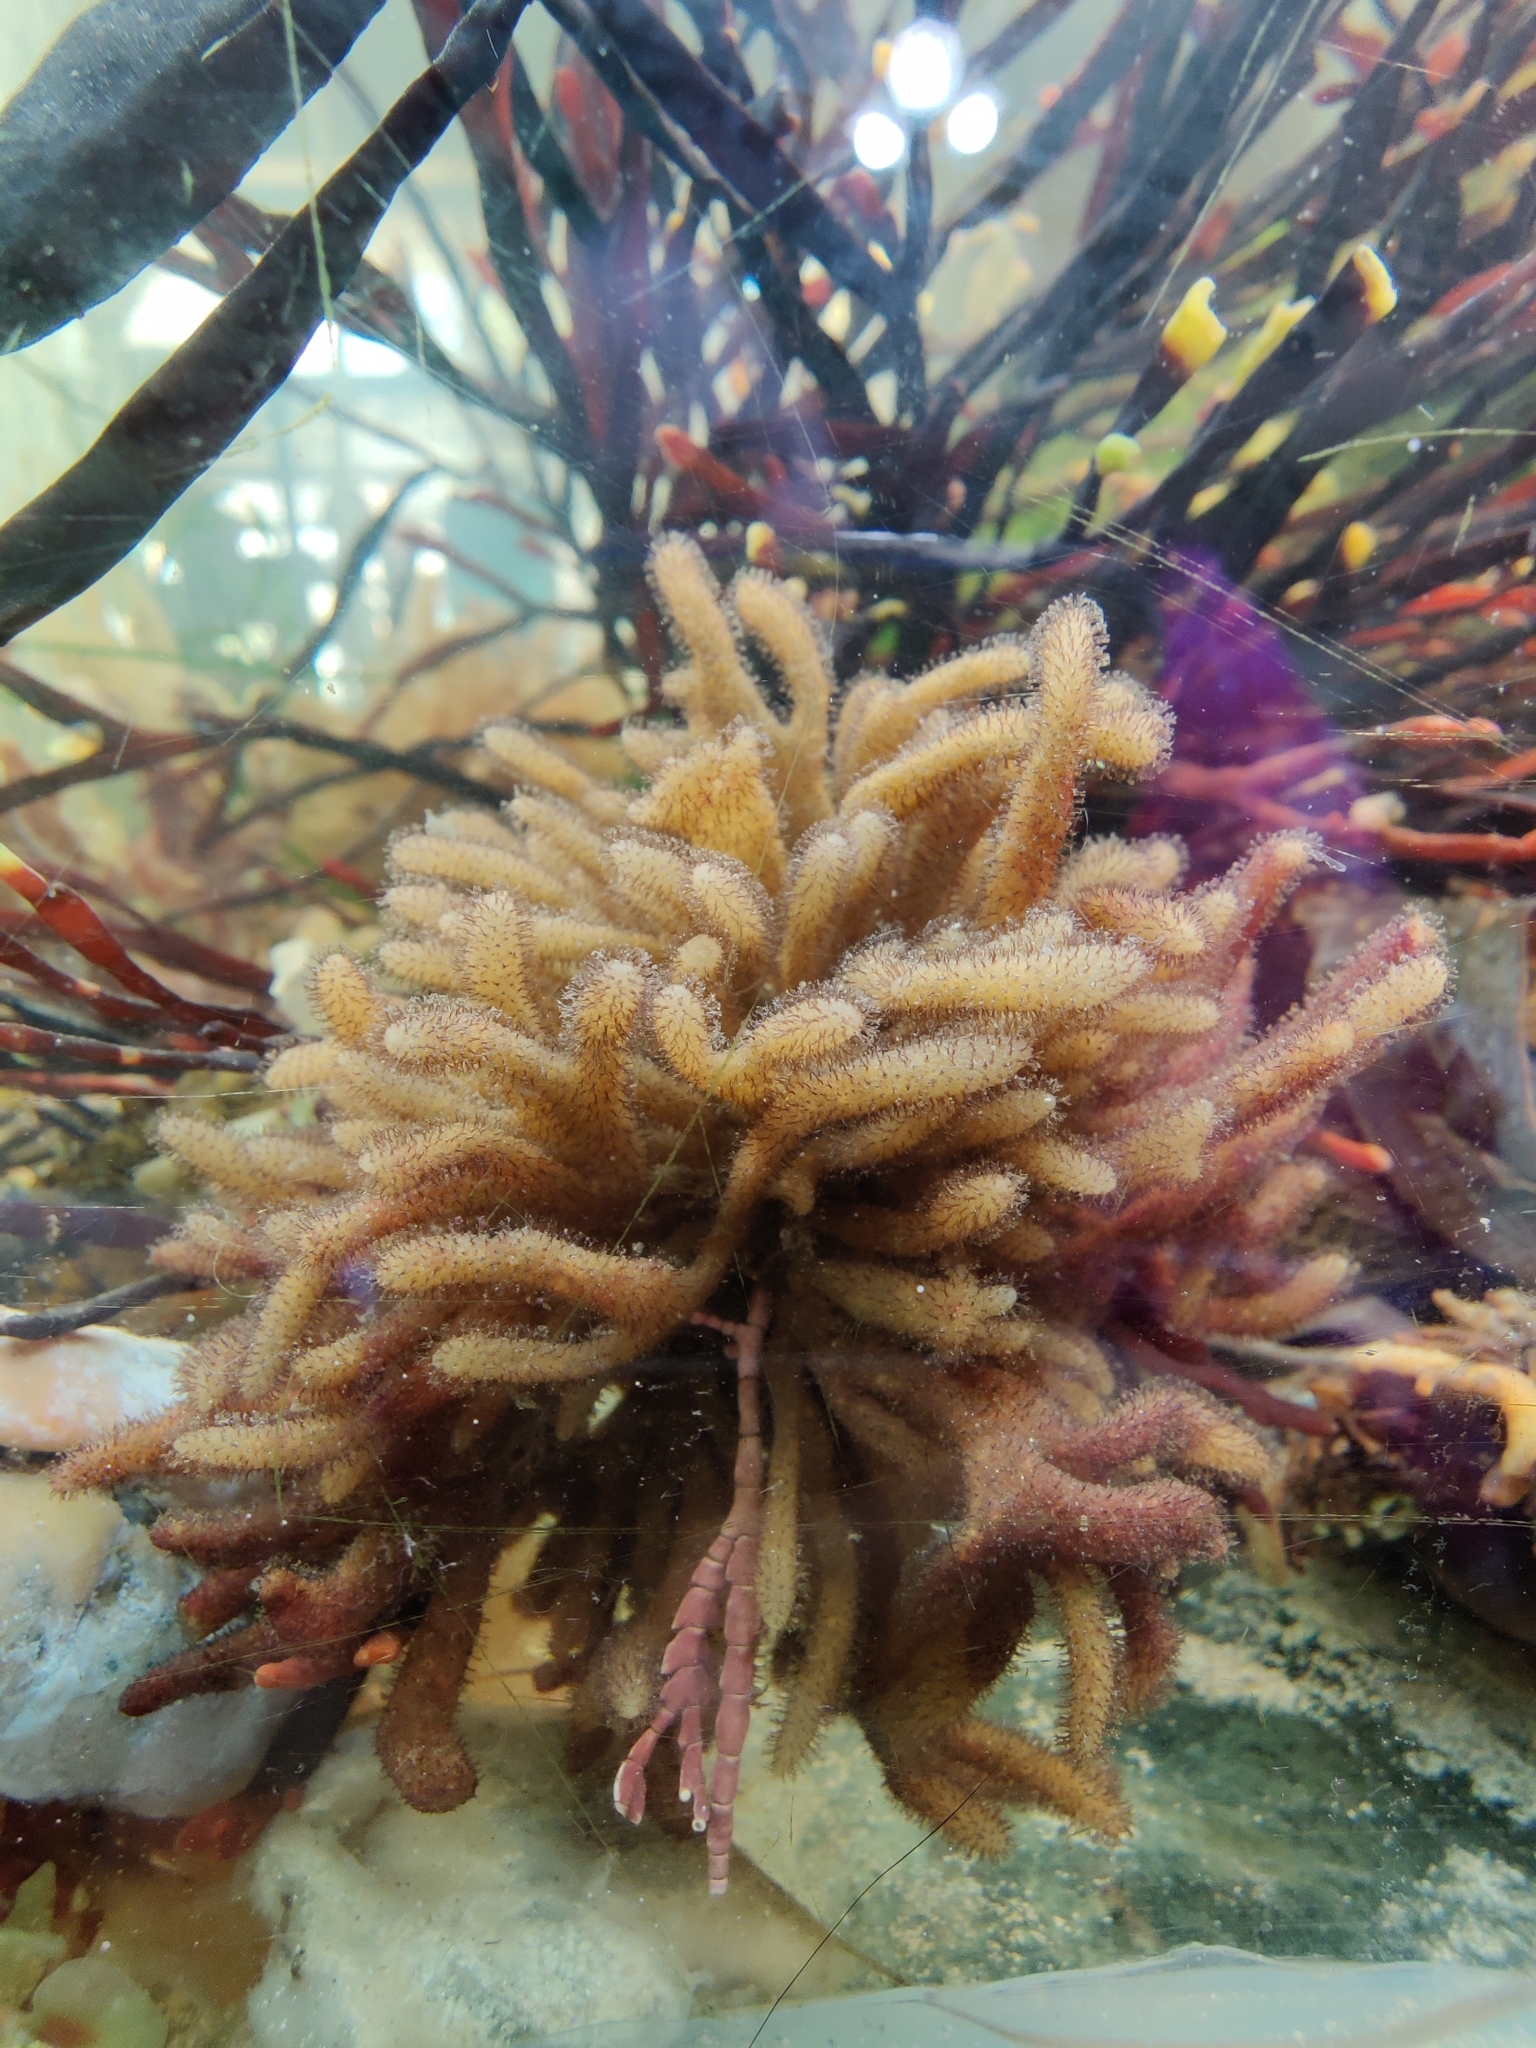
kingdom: Animalia
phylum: Bryozoa
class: Gymnolaemata
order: Ctenostomatida
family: Flustrellidridae
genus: Flustrellidra
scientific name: Flustrellidra spinifera
